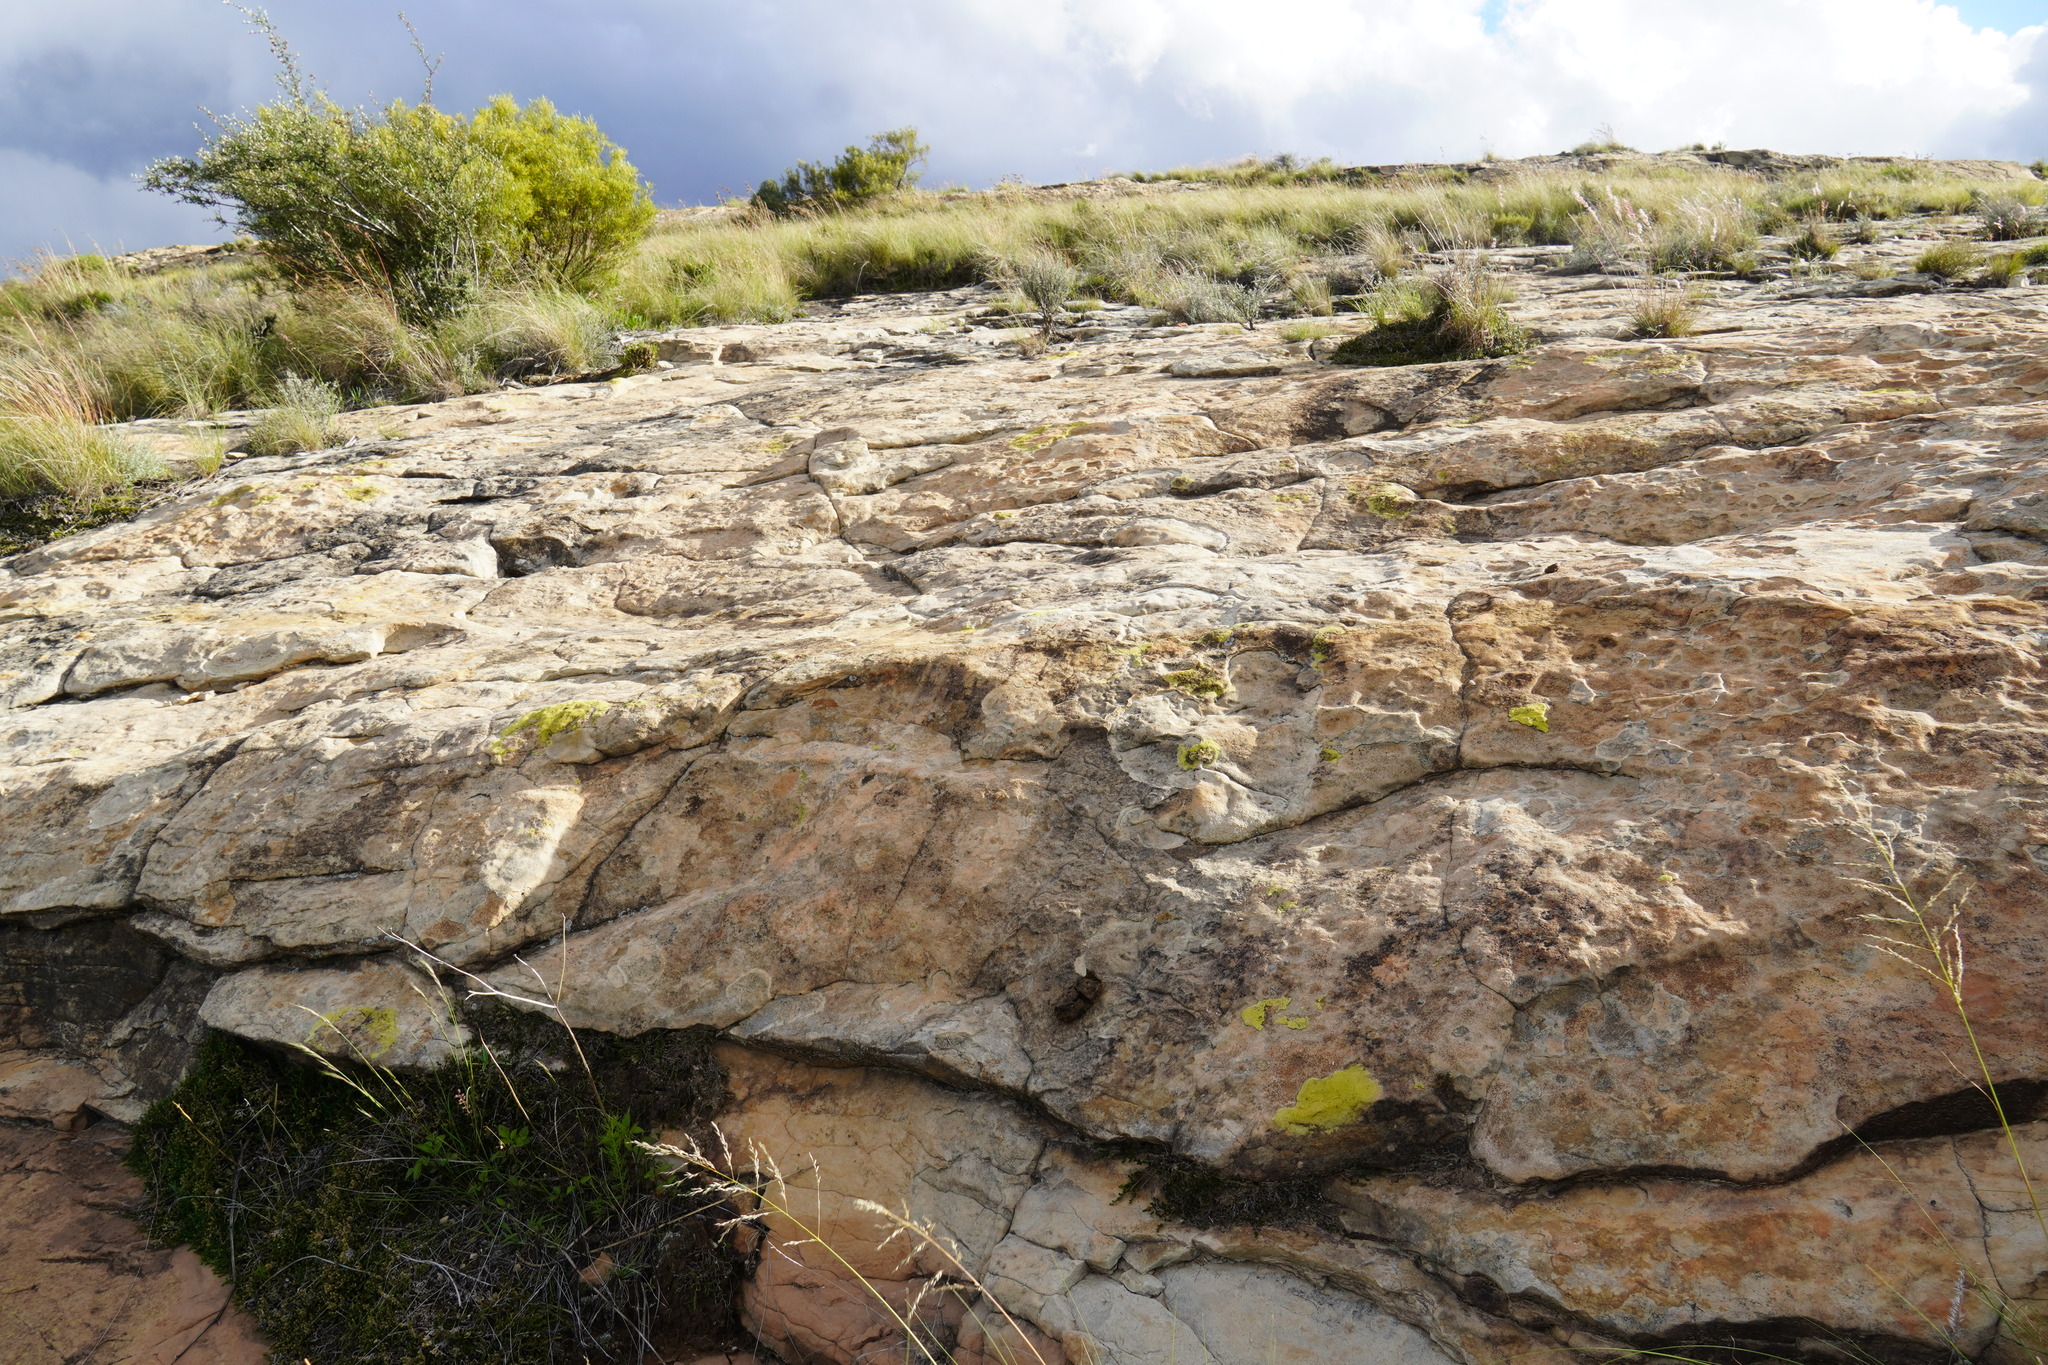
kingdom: Animalia
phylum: Chordata
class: Mammalia
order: Primates
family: Cercopithecidae
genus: Papio
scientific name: Papio ursinus
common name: Chacma baboon
